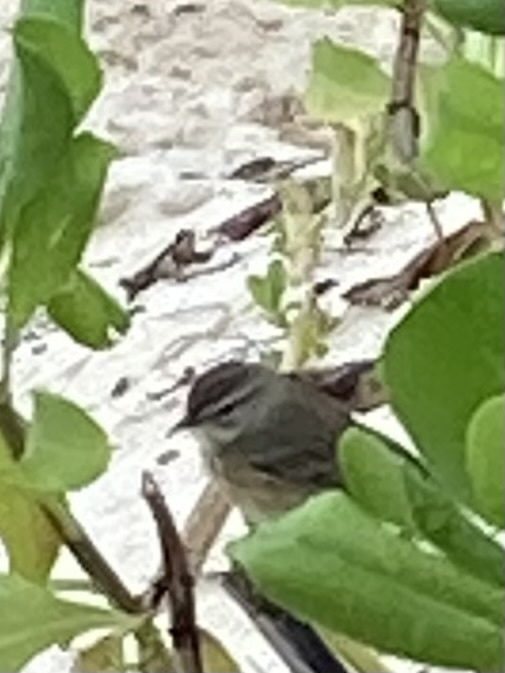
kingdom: Animalia
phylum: Chordata
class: Aves
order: Passeriformes
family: Parulidae
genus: Setophaga
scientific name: Setophaga palmarum
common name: Palm warbler
